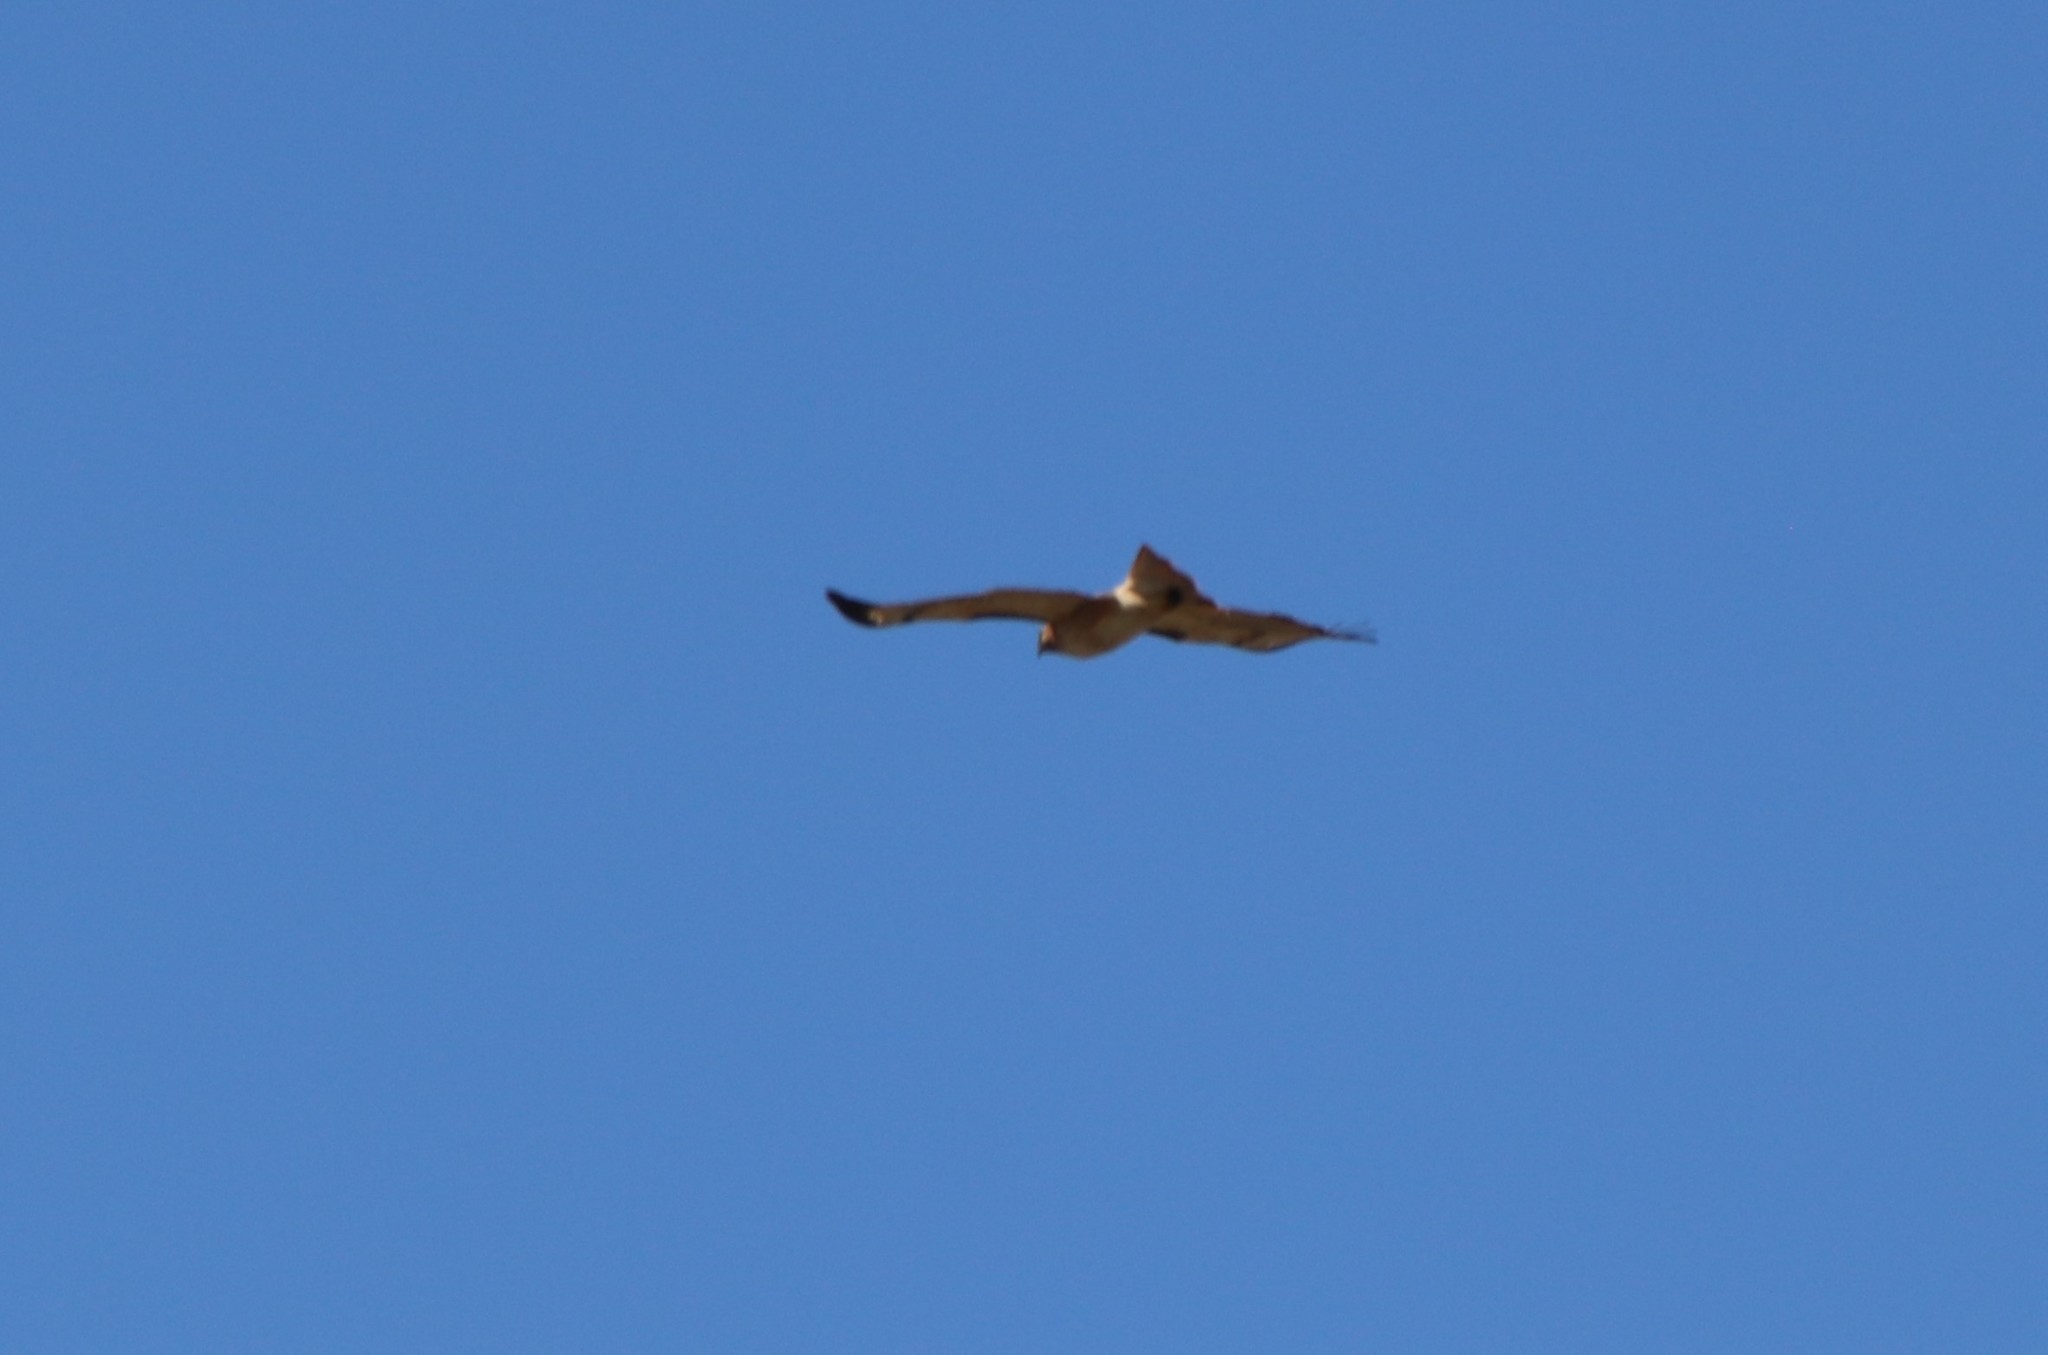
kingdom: Animalia
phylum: Chordata
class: Aves
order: Accipitriformes
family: Accipitridae
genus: Buteo
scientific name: Buteo jamaicensis
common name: Red-tailed hawk
